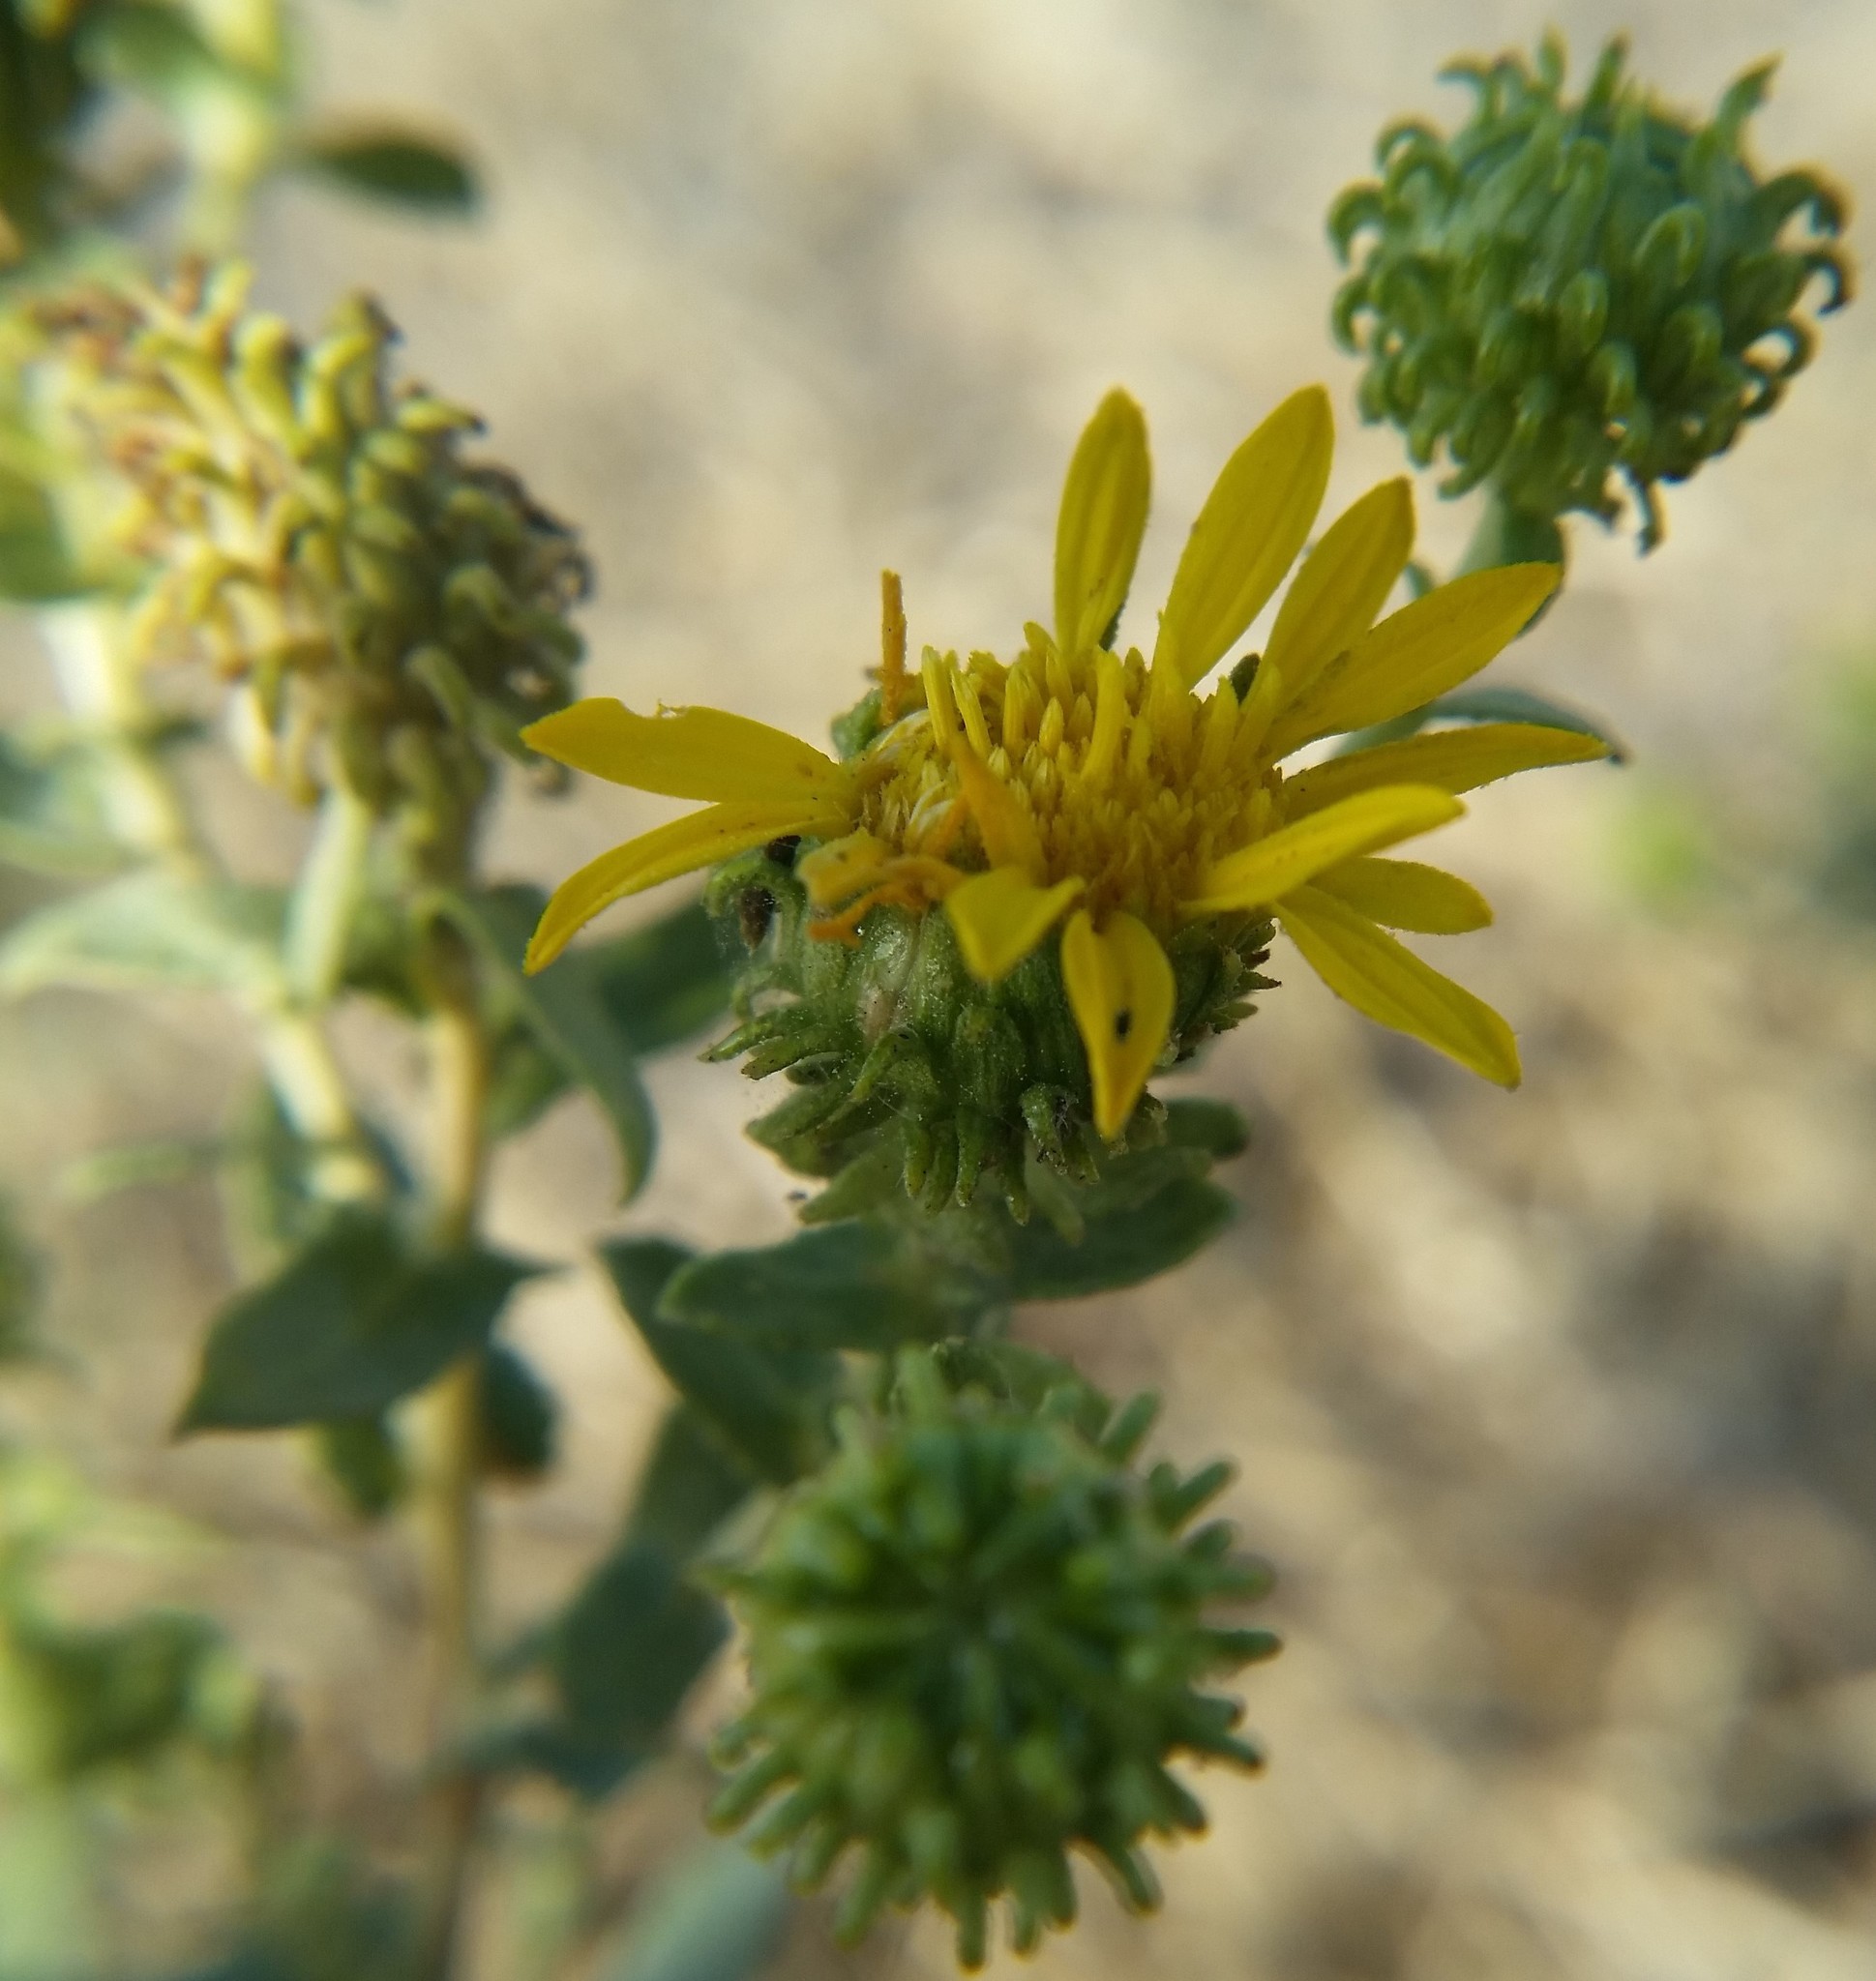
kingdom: Plantae
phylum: Tracheophyta
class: Magnoliopsida
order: Asterales
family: Asteraceae
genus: Grindelia
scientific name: Grindelia squarrosa
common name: Curly-cup gumweed
